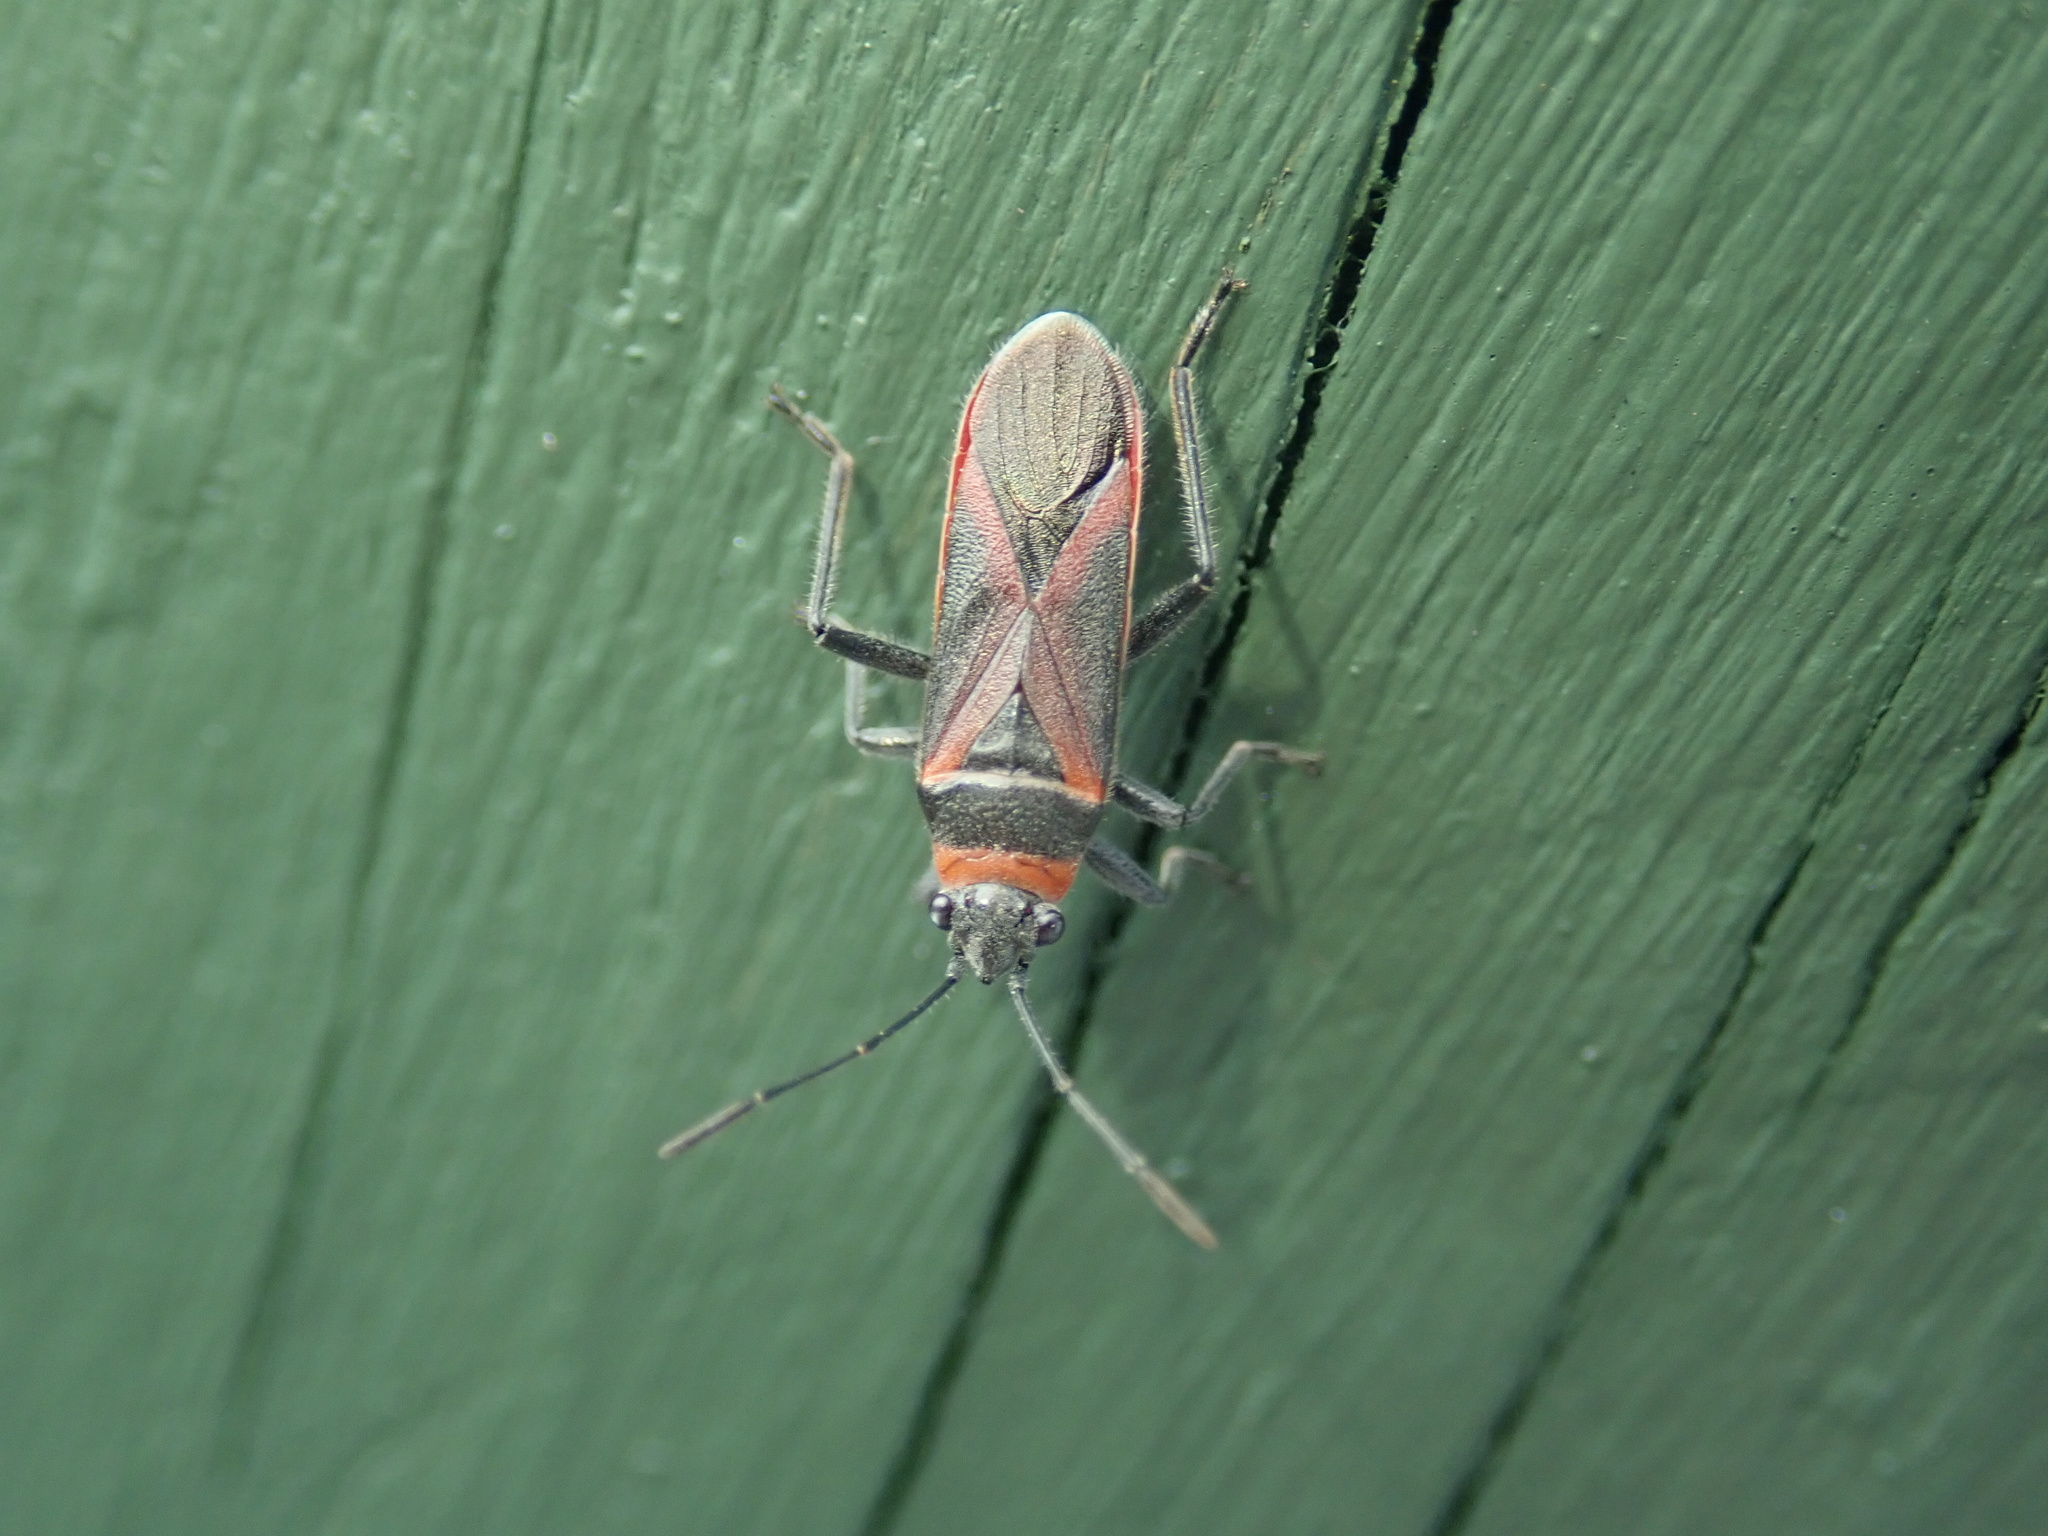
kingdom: Animalia
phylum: Arthropoda
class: Insecta
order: Hemiptera
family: Lygaeidae
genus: Arocatus
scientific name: Arocatus rusticus
